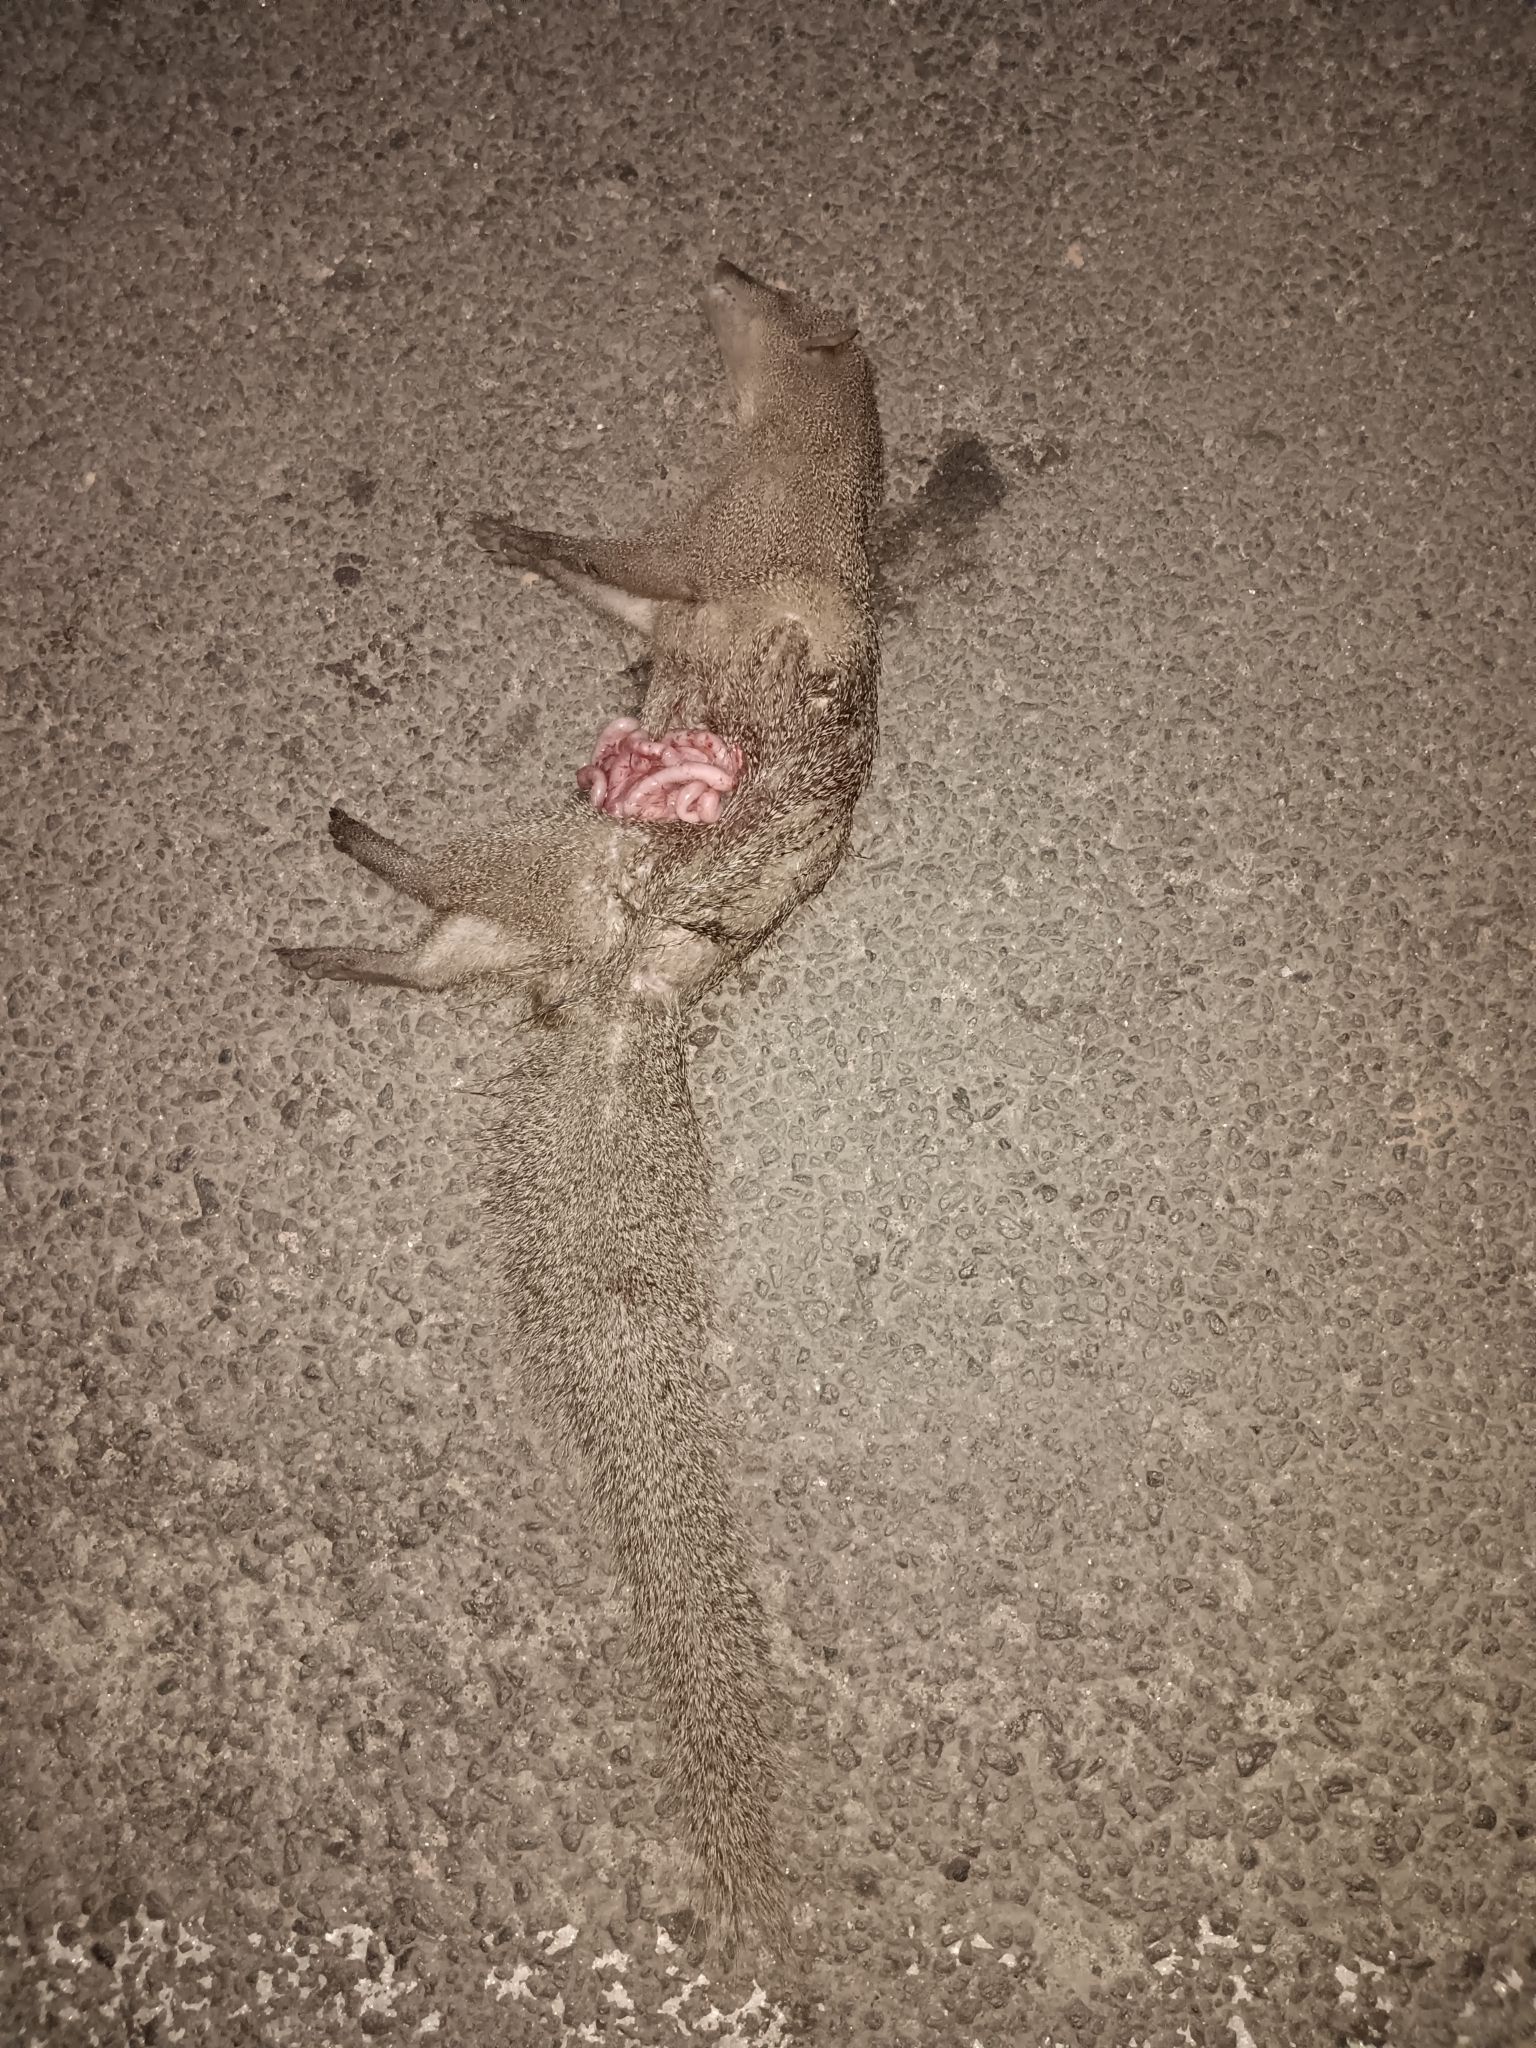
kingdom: Animalia
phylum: Chordata
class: Mammalia
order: Carnivora
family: Herpestidae
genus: Herpestes
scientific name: Herpestes edwardsi
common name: Indian gray mongoose
